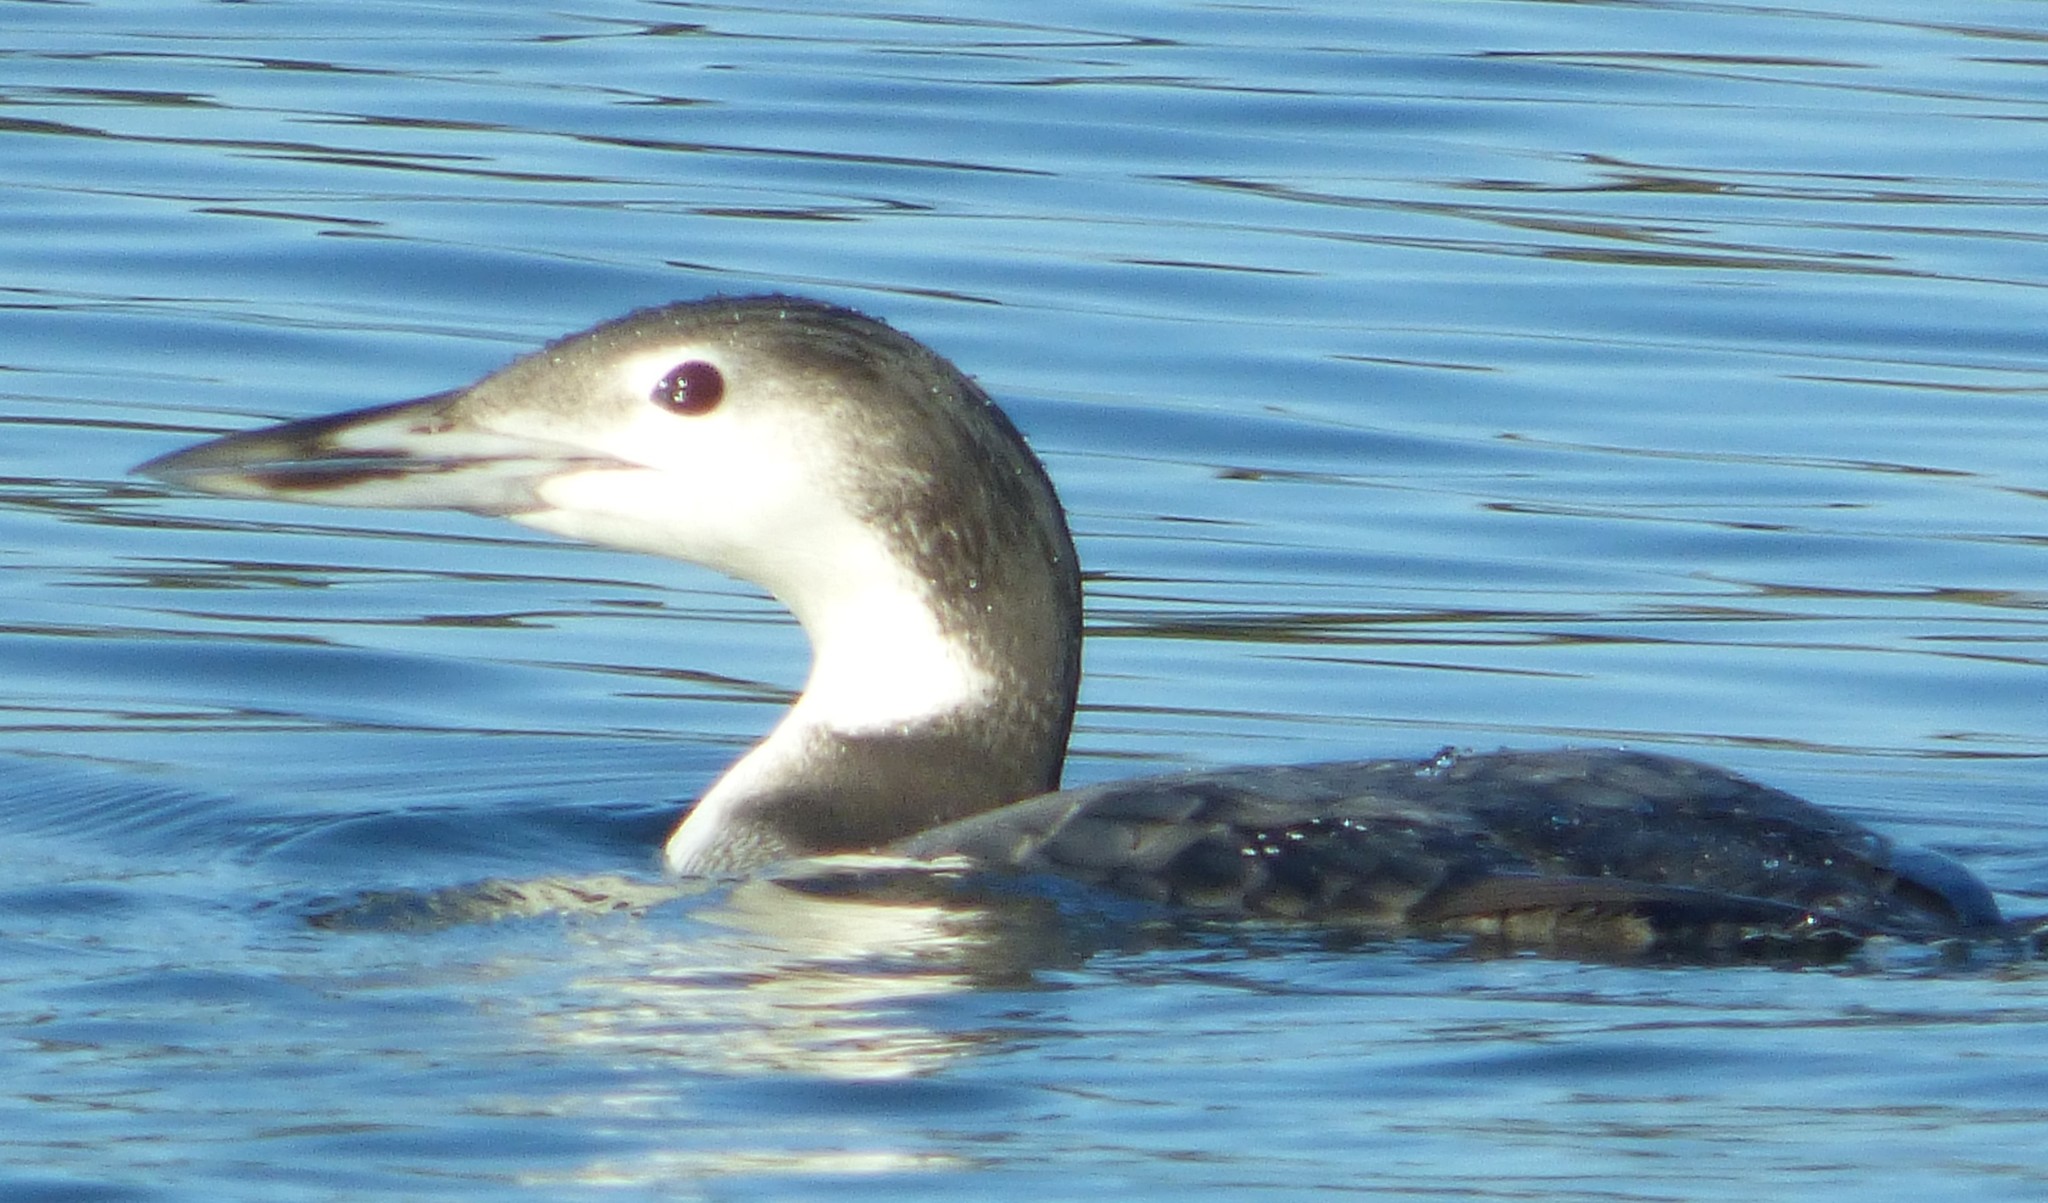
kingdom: Animalia
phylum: Chordata
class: Aves
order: Gaviiformes
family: Gaviidae
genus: Gavia
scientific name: Gavia immer
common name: Common loon
